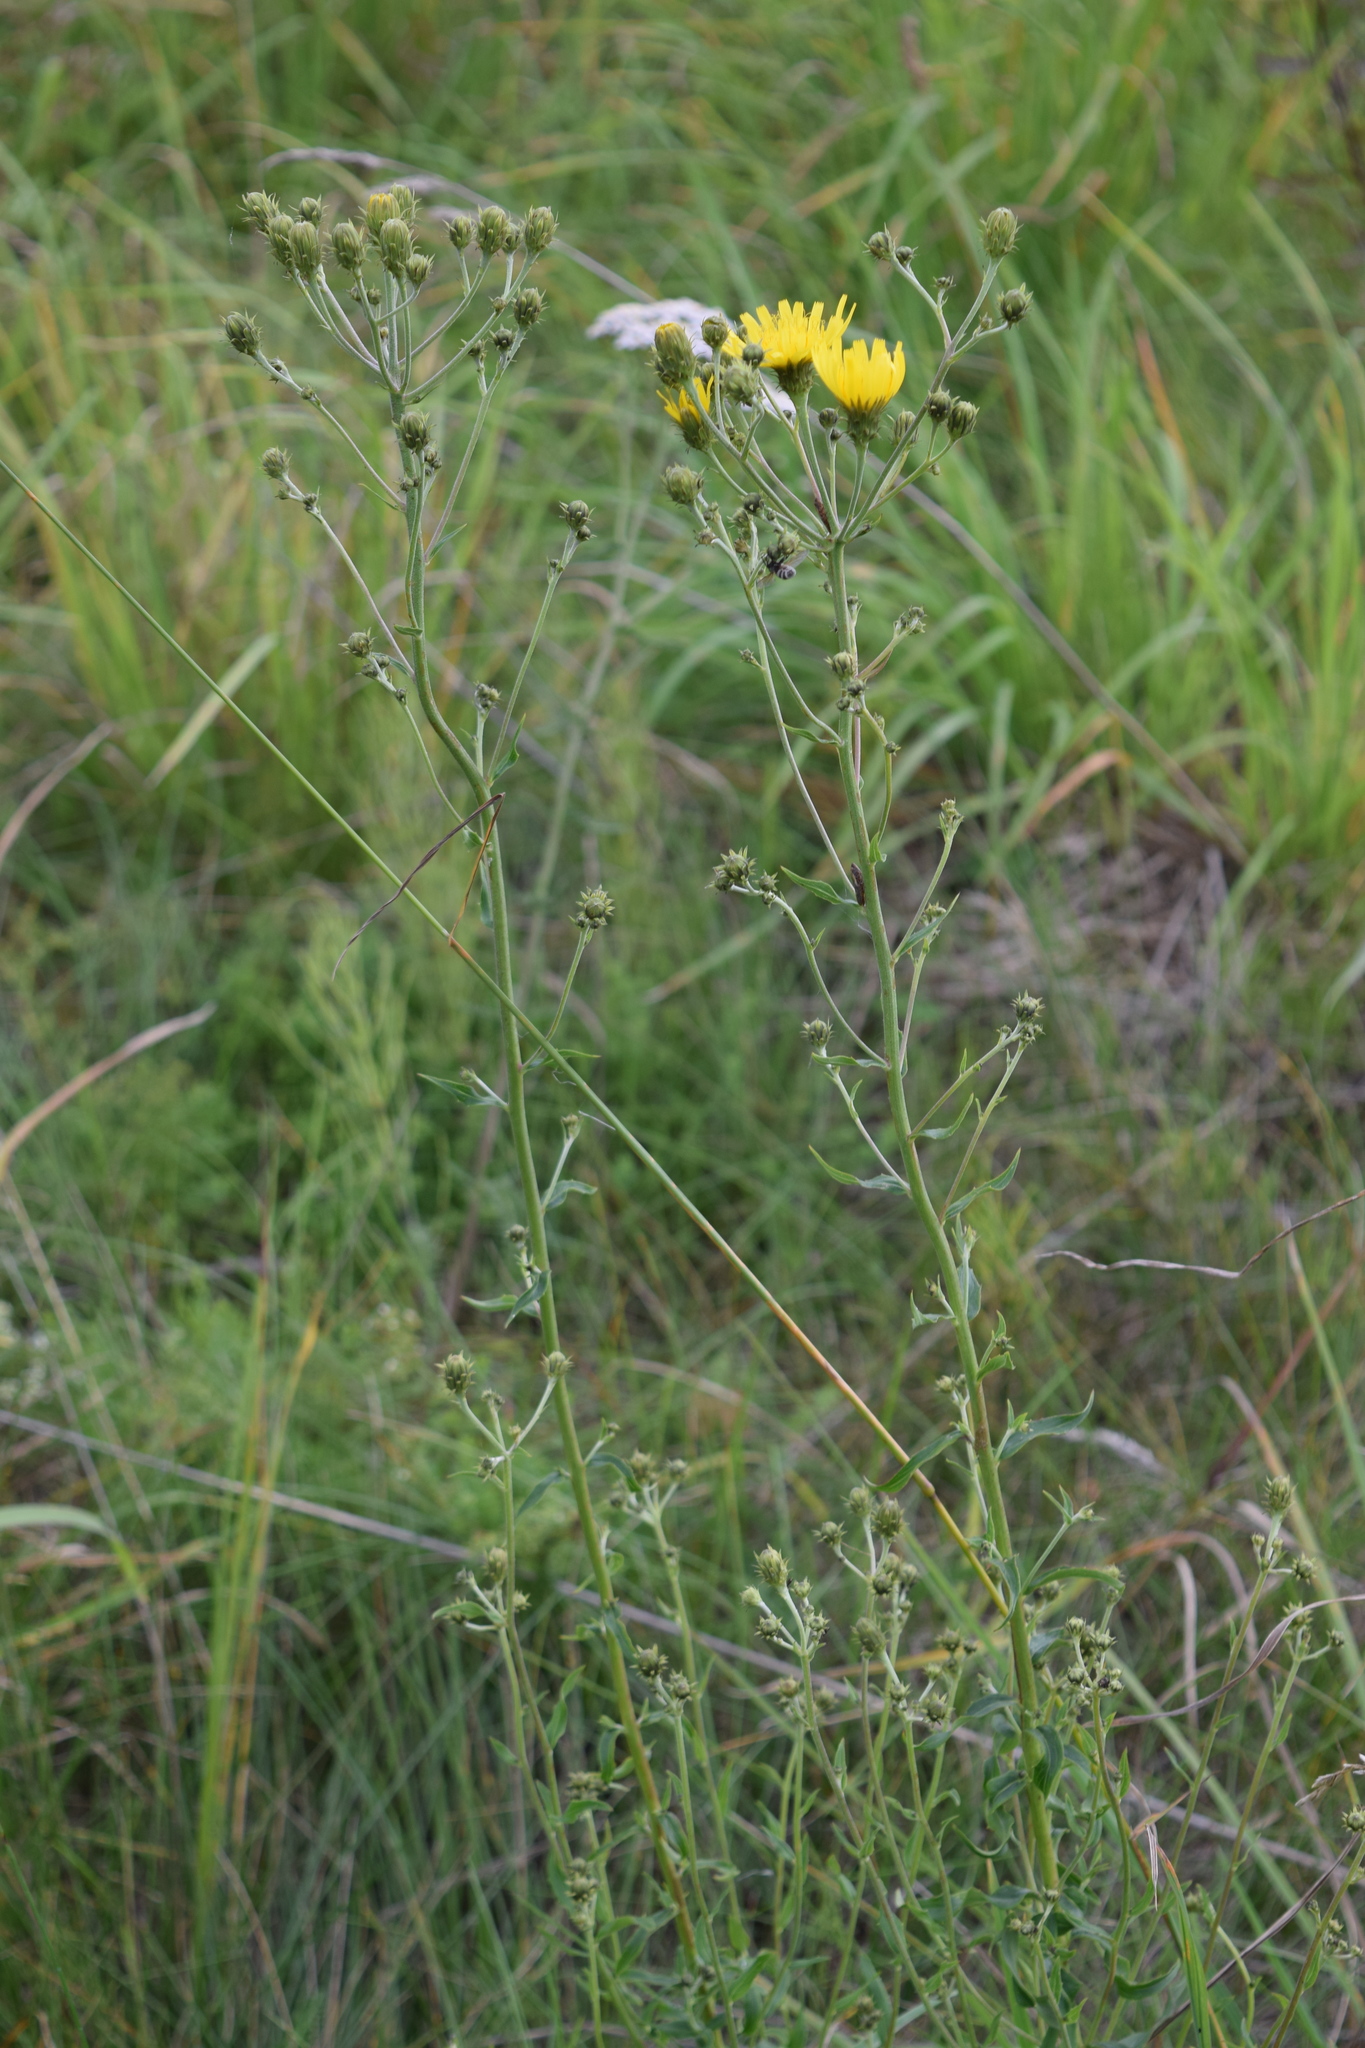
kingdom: Plantae
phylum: Tracheophyta
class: Magnoliopsida
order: Asterales
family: Asteraceae
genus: Hieracium
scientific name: Hieracium umbellatum
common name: Northern hawkweed
